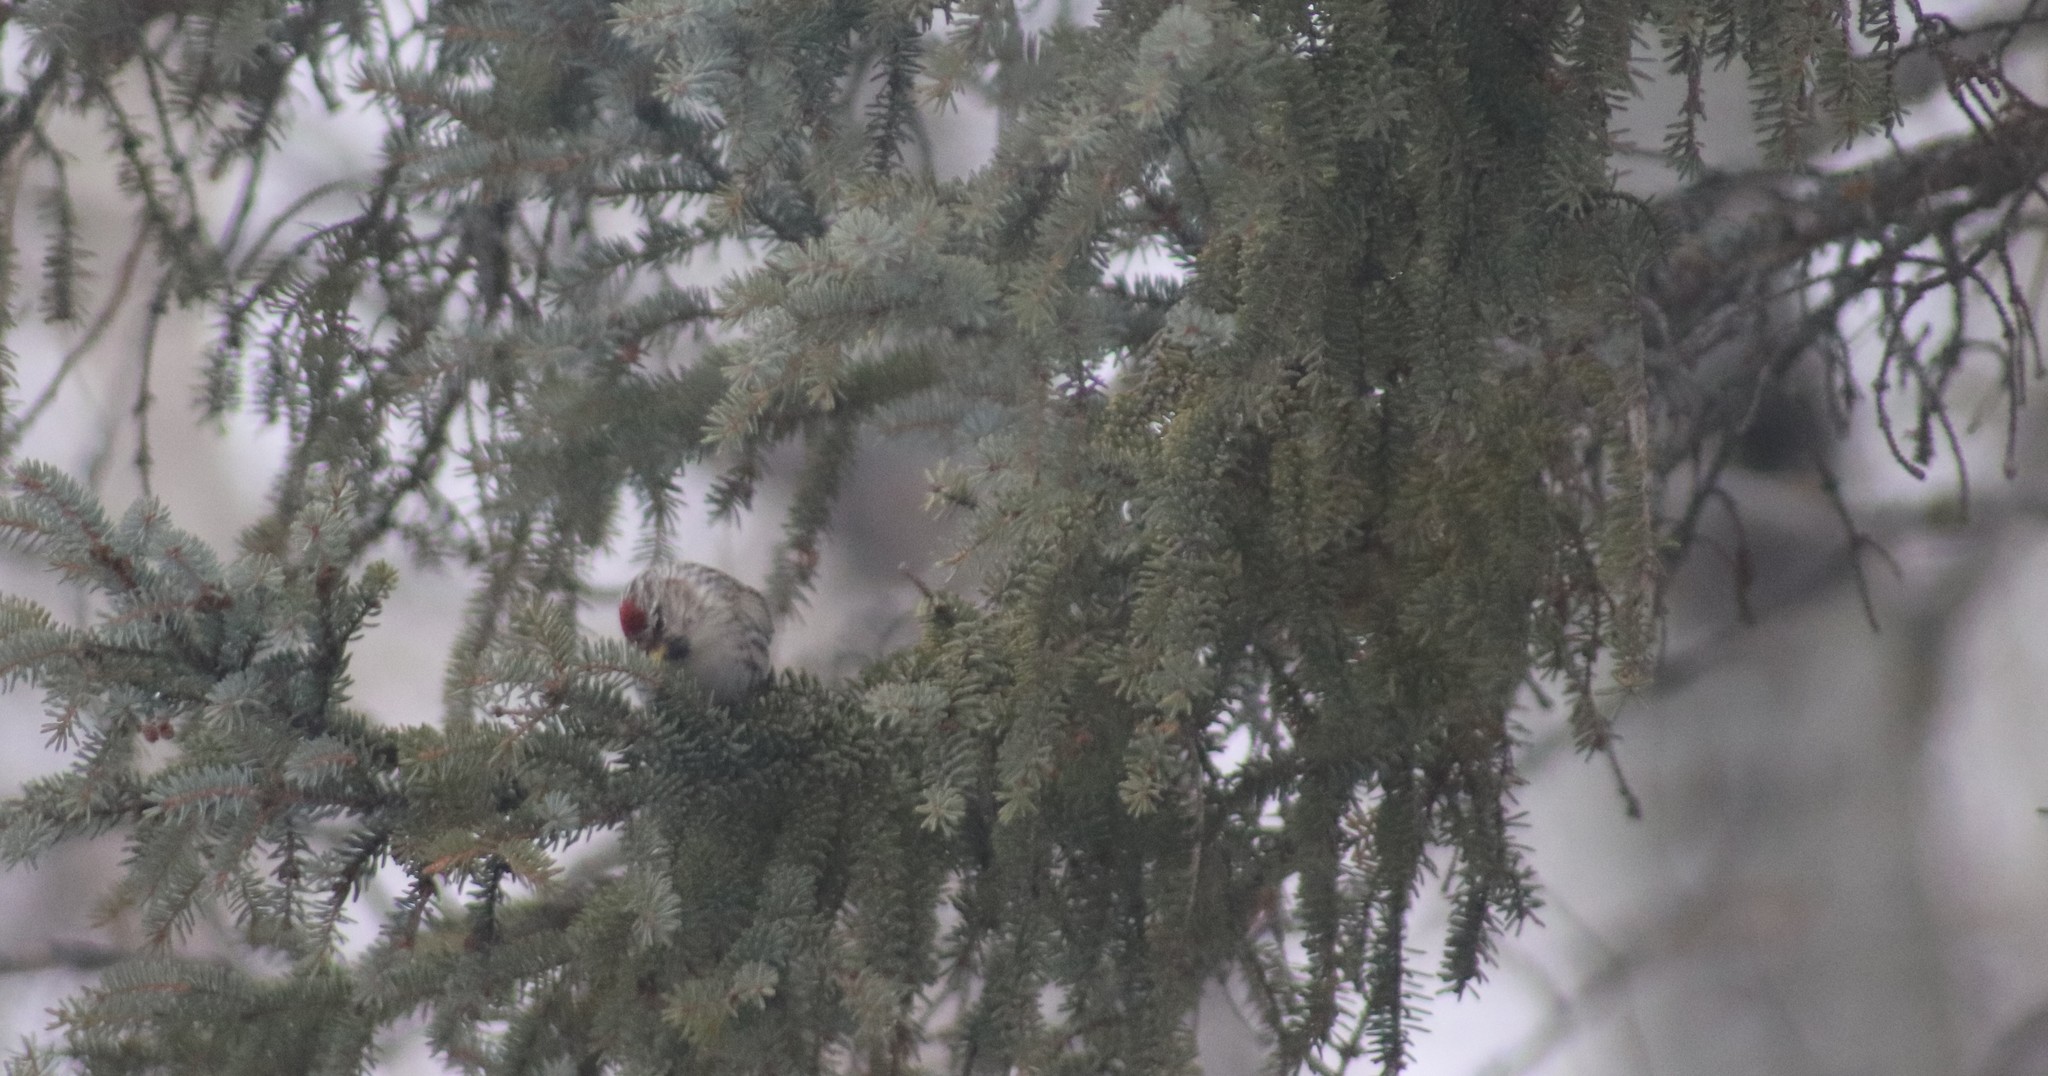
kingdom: Animalia
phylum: Chordata
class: Aves
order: Passeriformes
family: Fringillidae
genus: Acanthis
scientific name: Acanthis flammea
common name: Common redpoll
